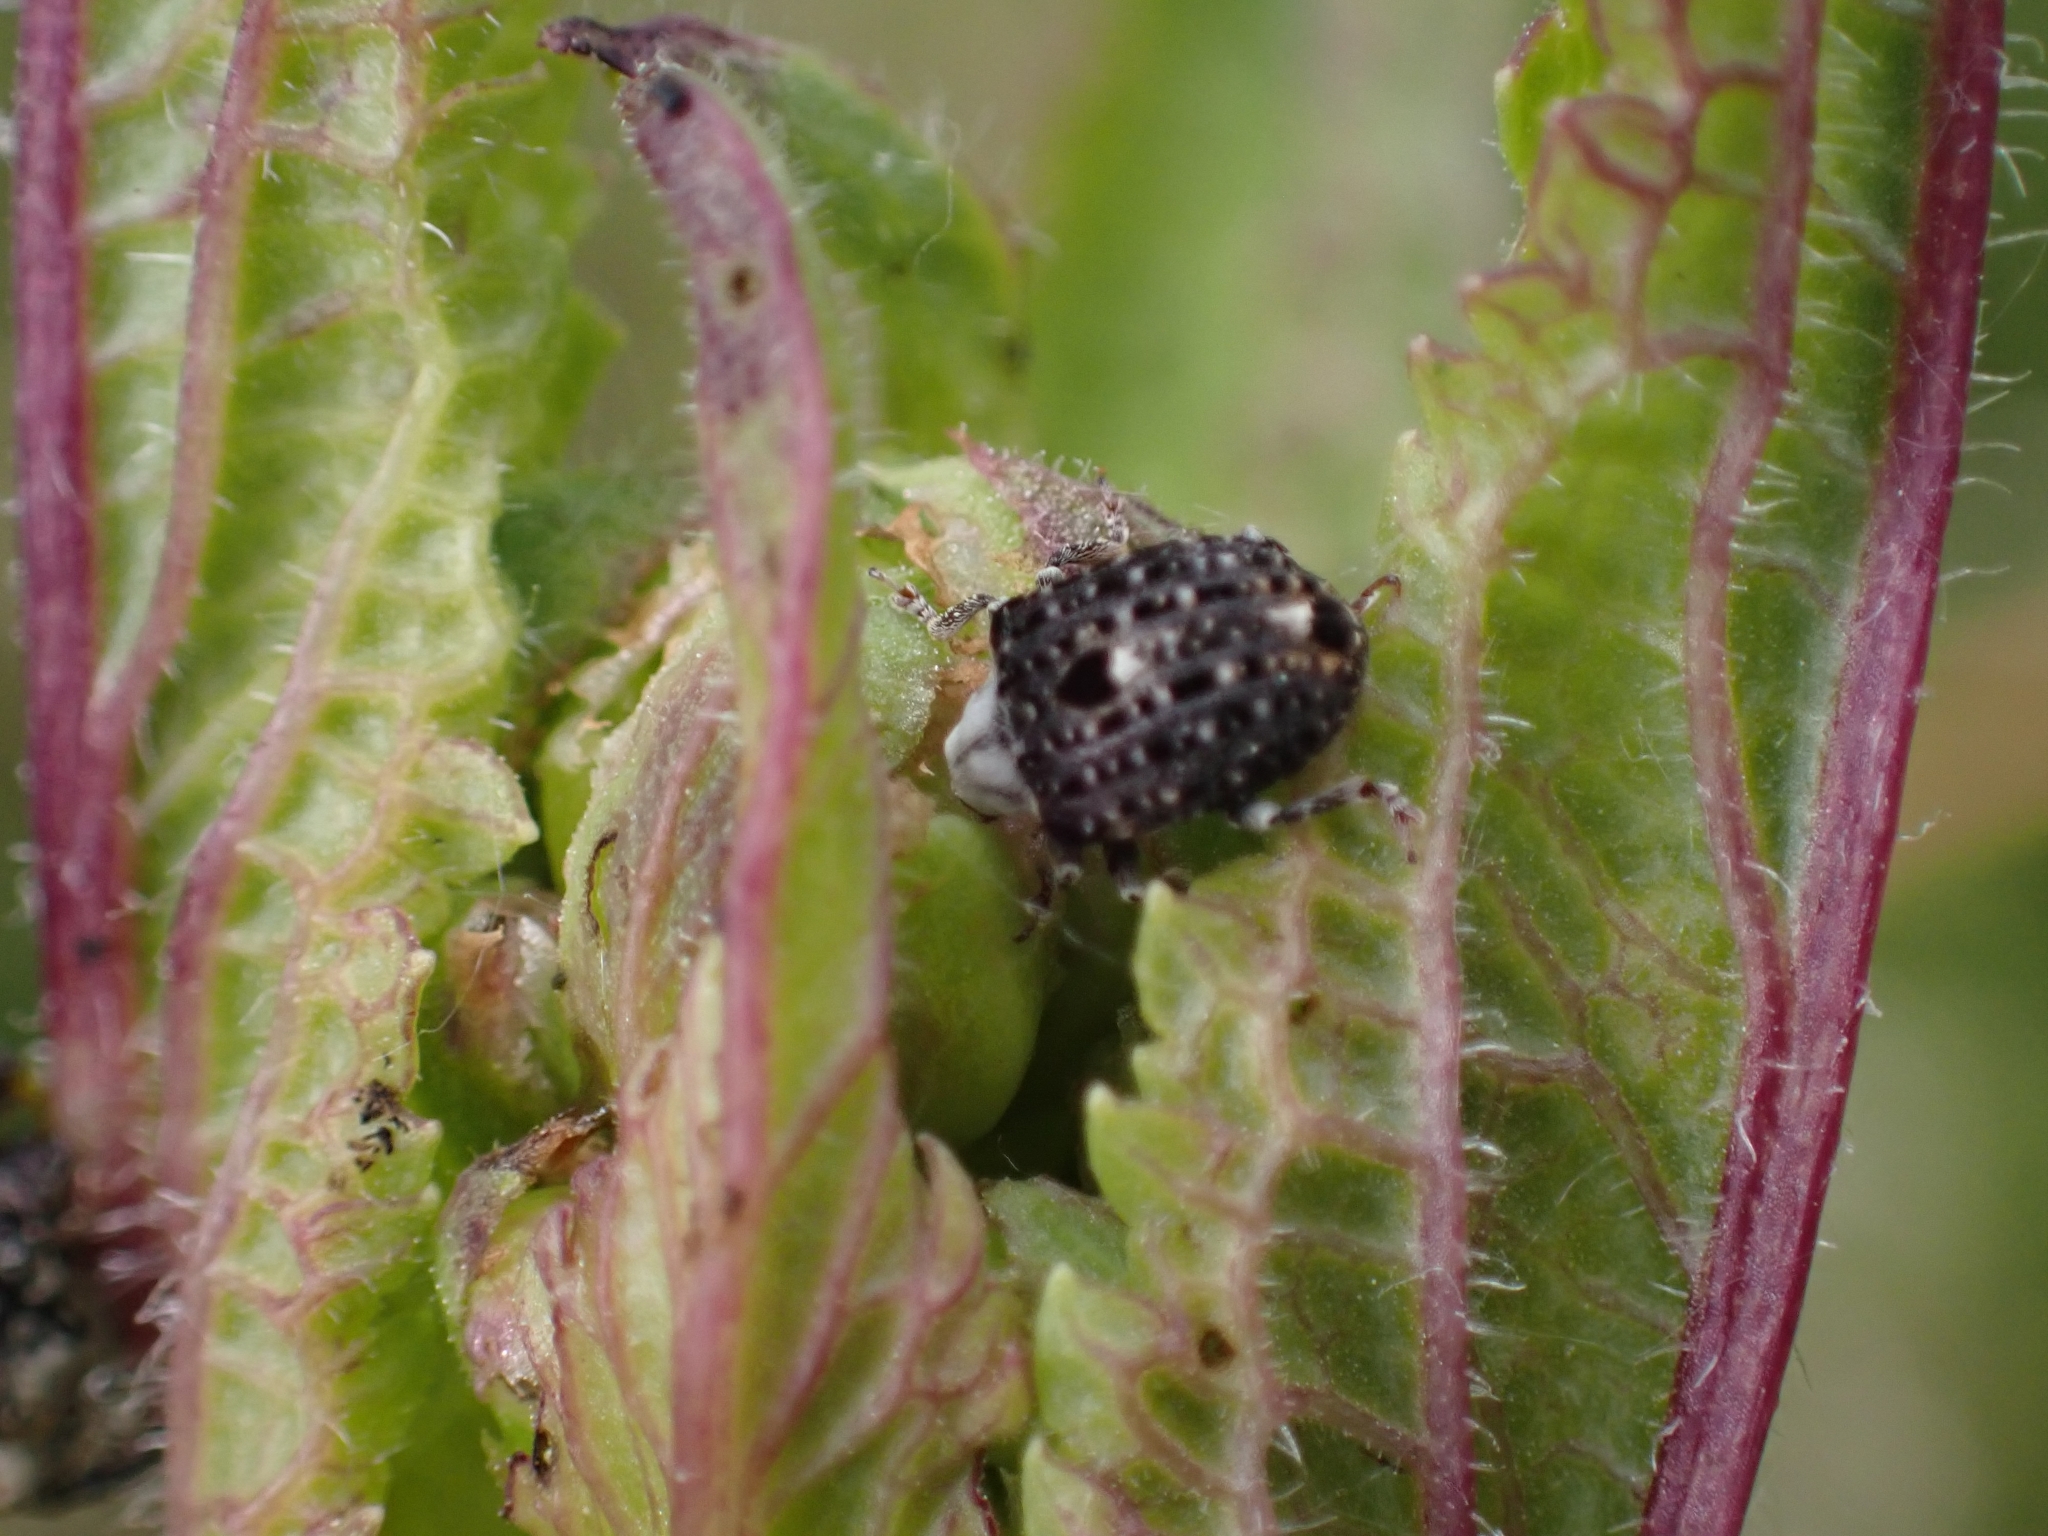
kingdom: Animalia
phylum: Arthropoda
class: Insecta
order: Coleoptera
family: Curculionidae
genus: Cionus
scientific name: Cionus scrophulariae
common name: Common figwort weevil
